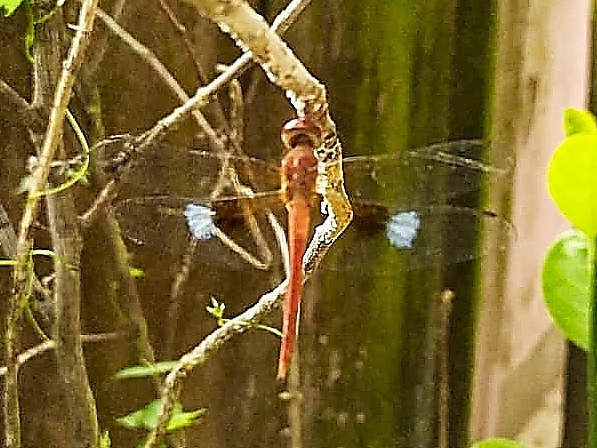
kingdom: Animalia
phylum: Arthropoda
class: Insecta
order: Odonata
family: Libellulidae
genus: Tholymis
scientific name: Tholymis tillarga
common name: Coral-tailed cloud wing
